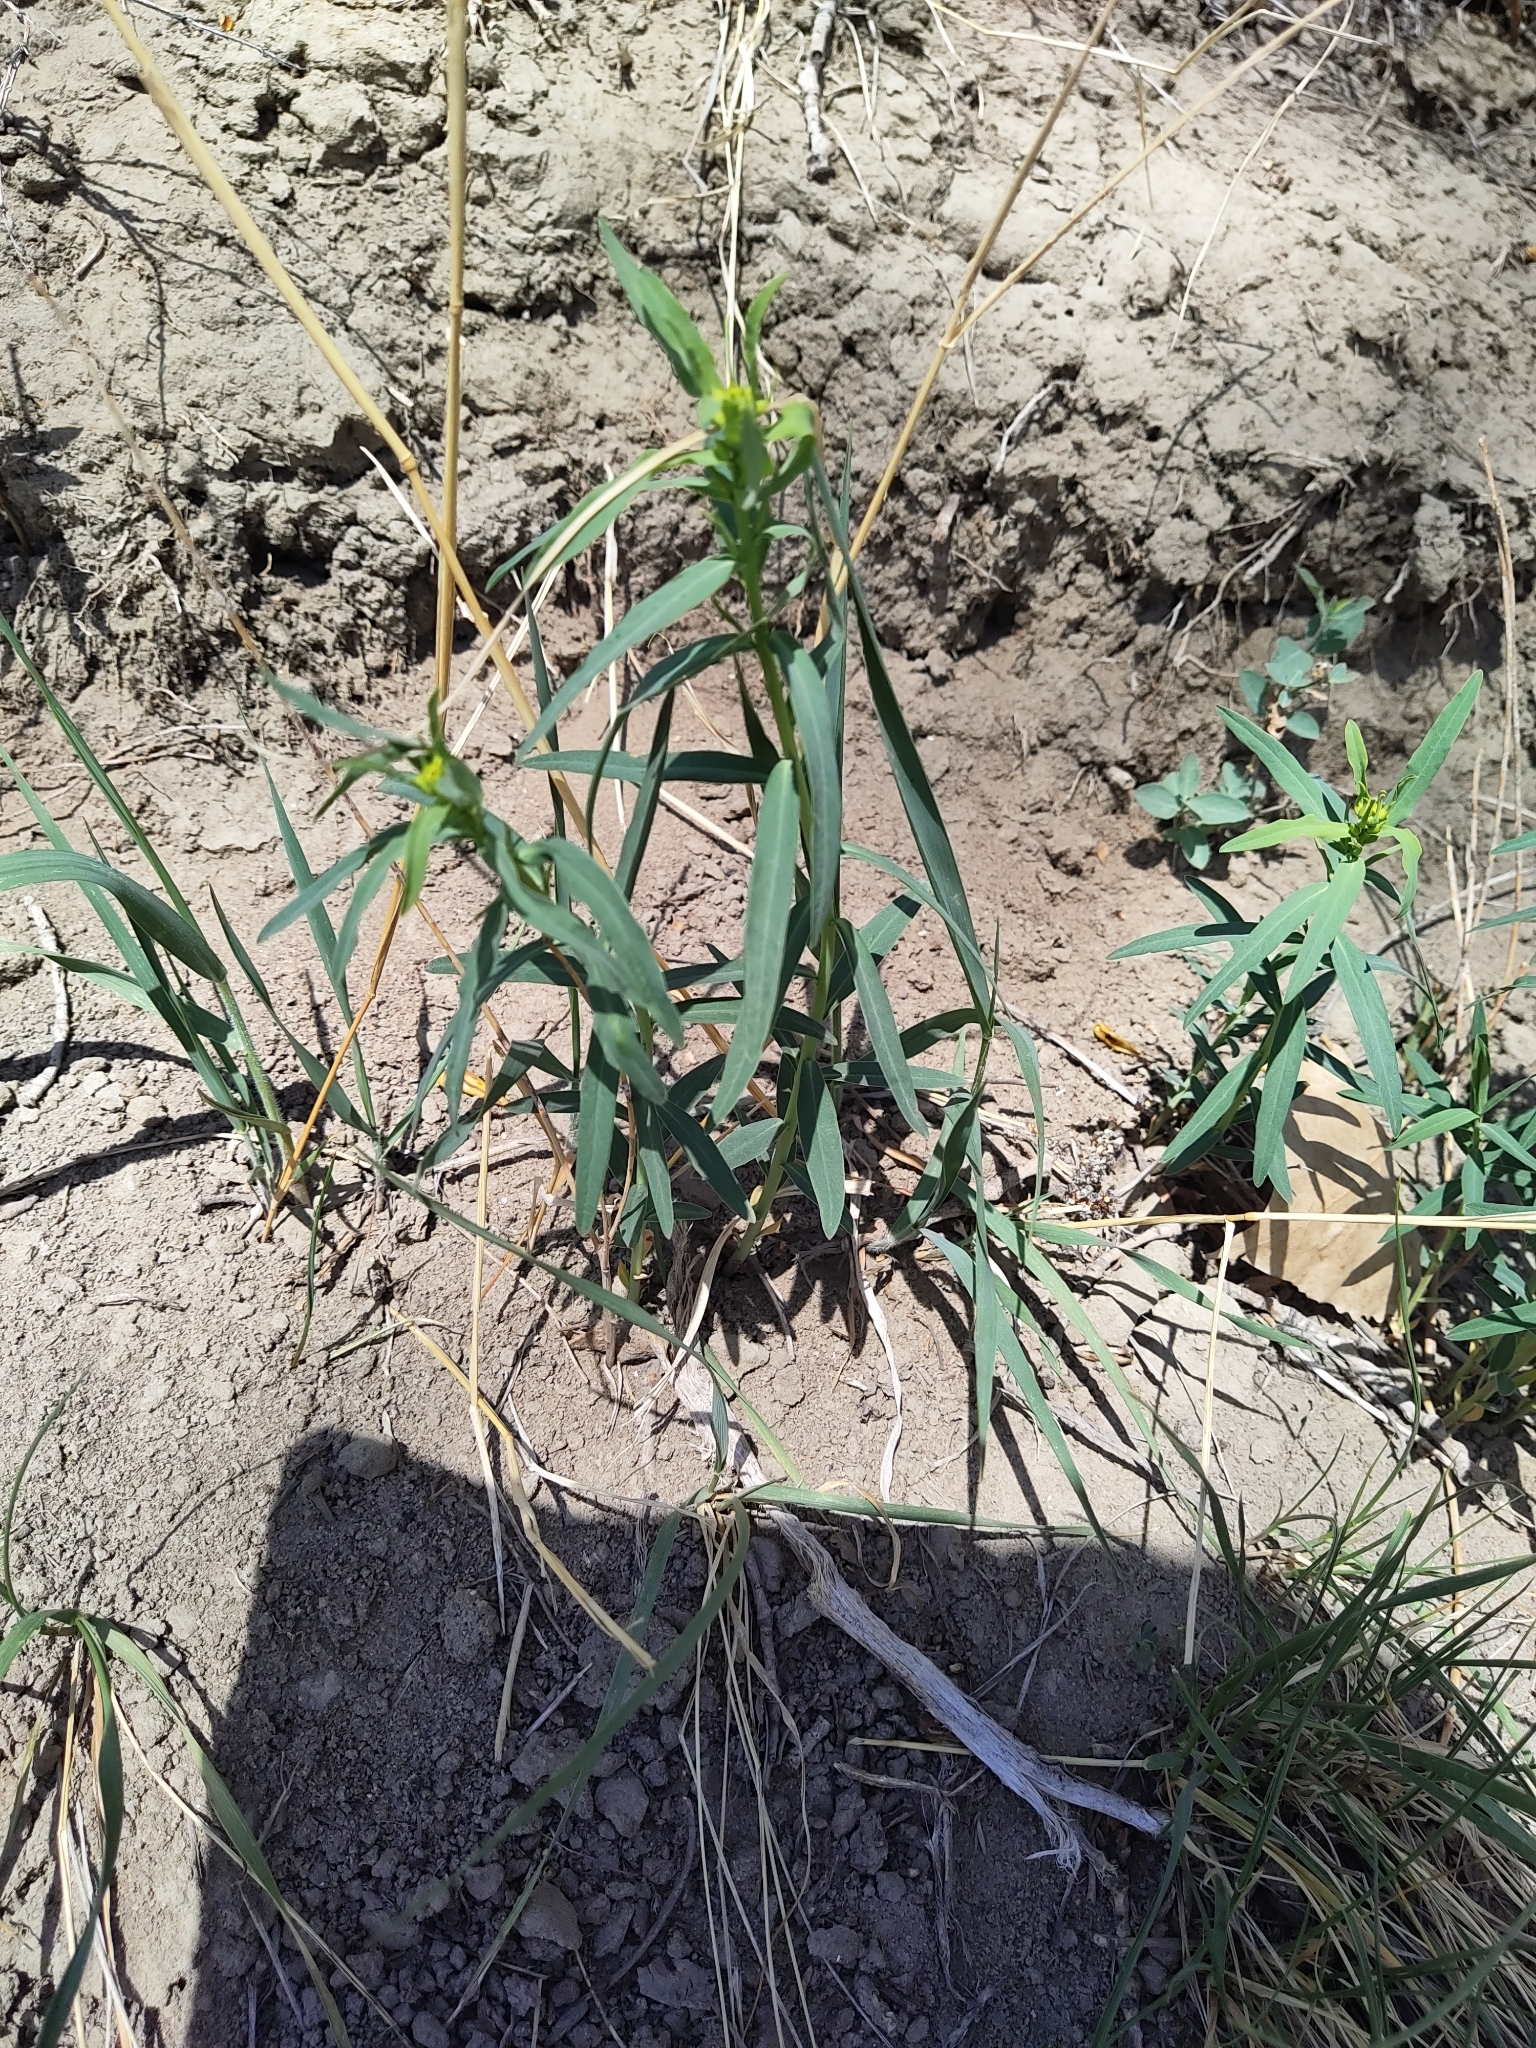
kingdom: Plantae
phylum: Tracheophyta
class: Magnoliopsida
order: Malpighiales
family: Euphorbiaceae
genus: Euphorbia
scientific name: Euphorbia virgata
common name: Leafy spurge
